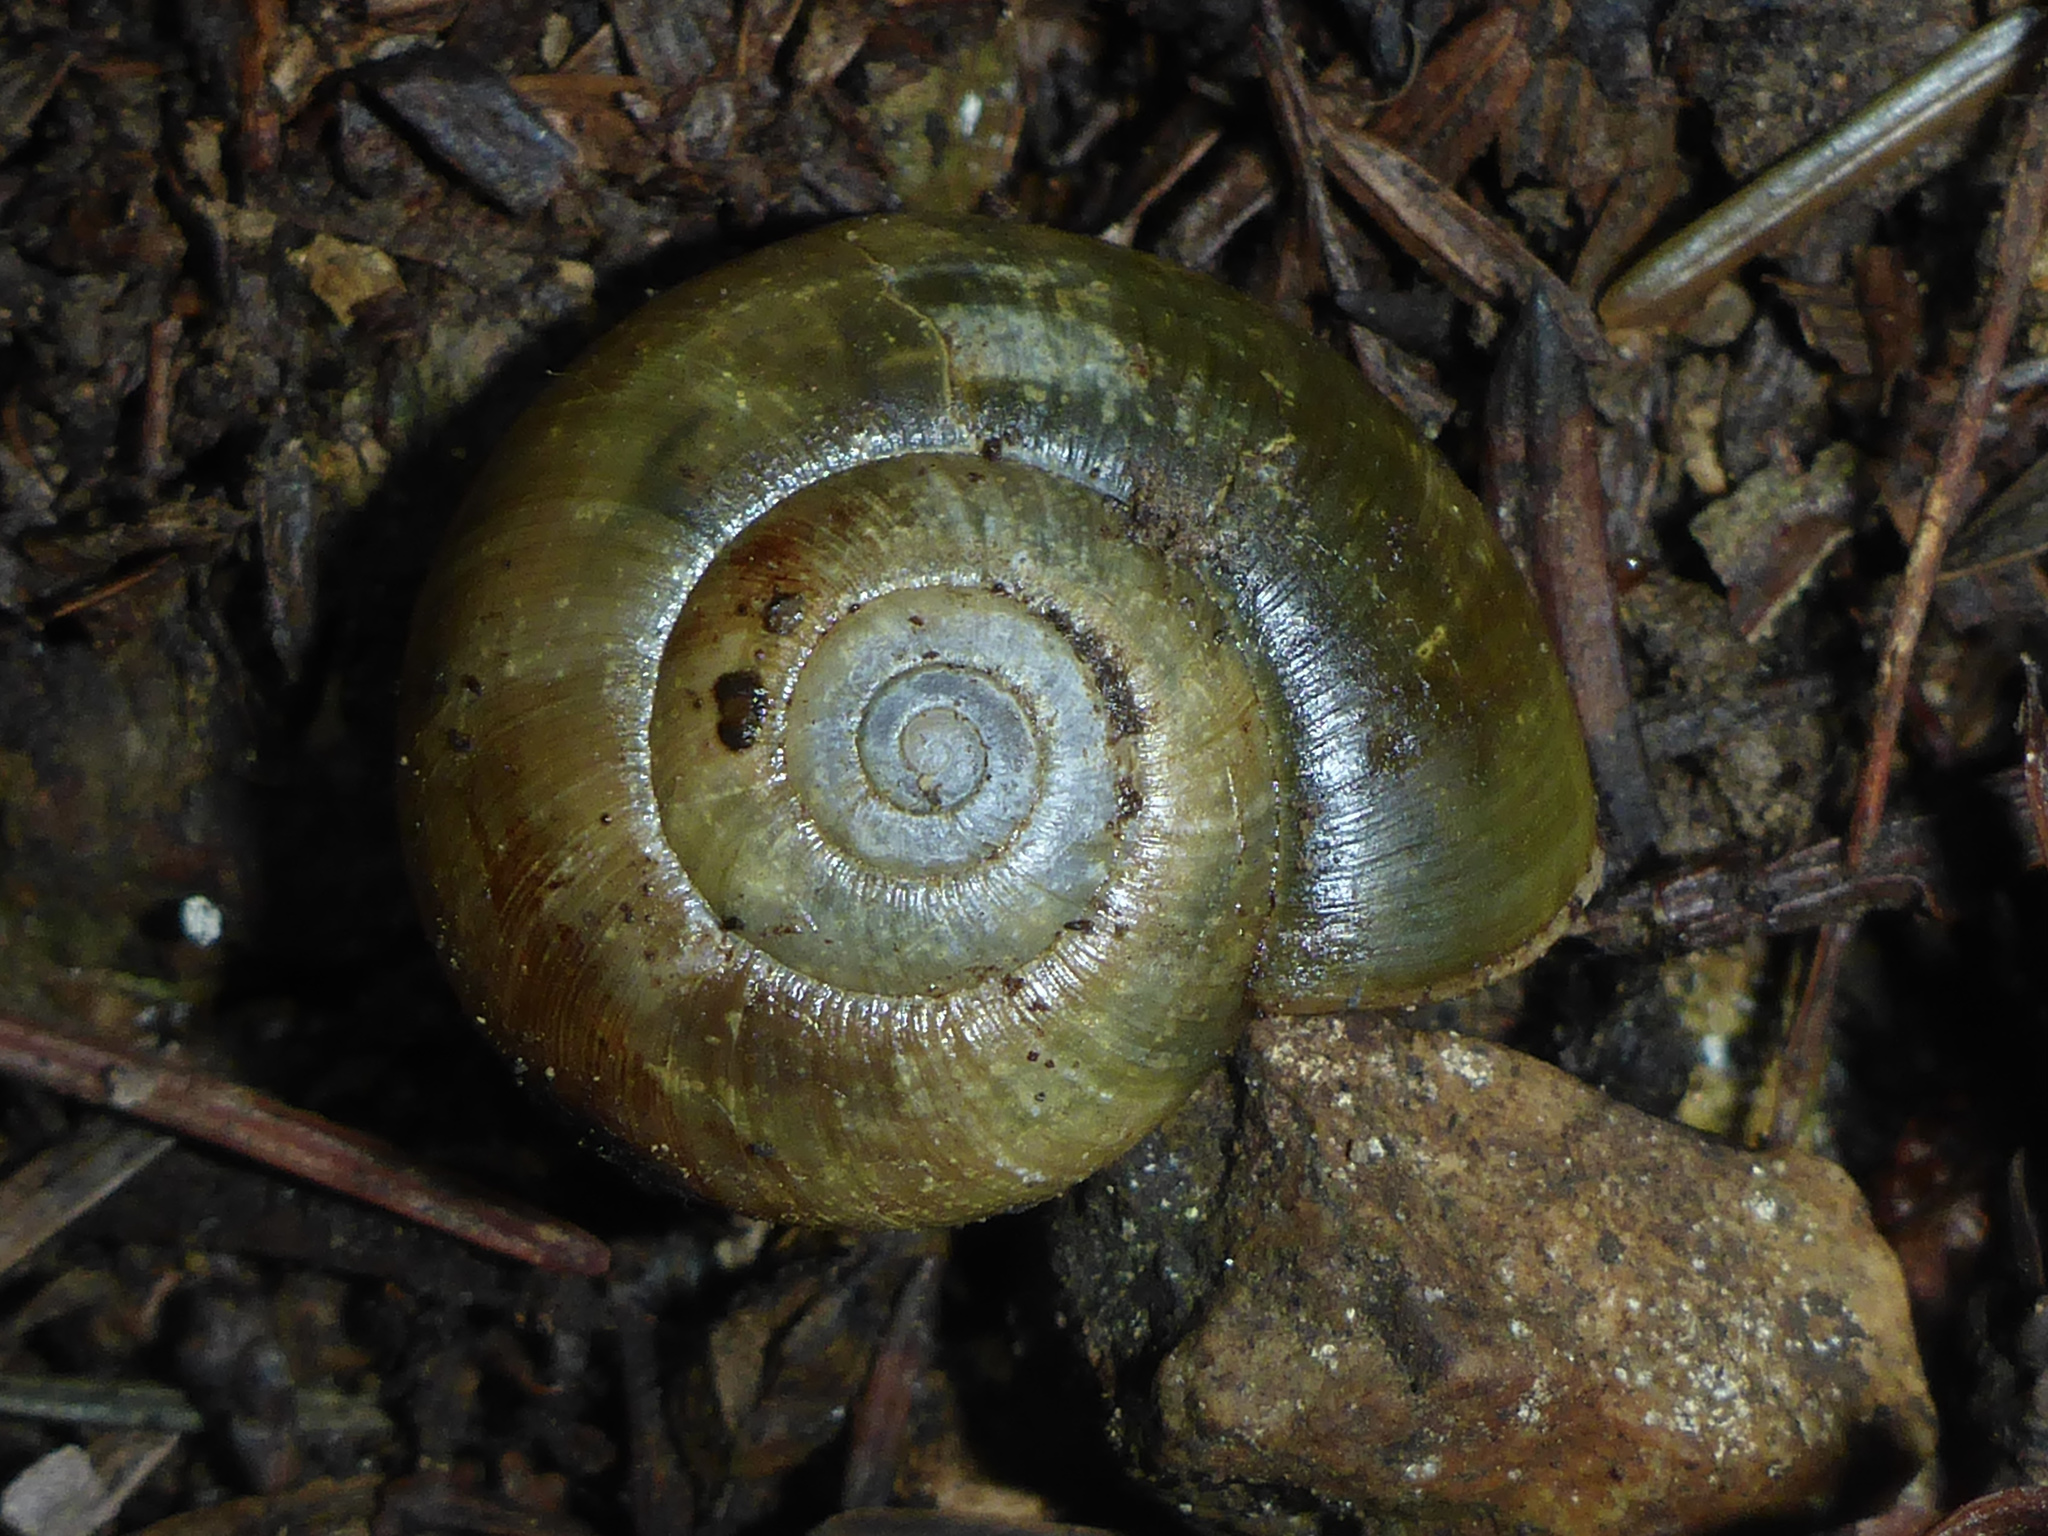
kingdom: Animalia
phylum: Mollusca
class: Gastropoda
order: Stylommatophora
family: Haplotrematidae
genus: Haplotrema
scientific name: Haplotrema minimum
